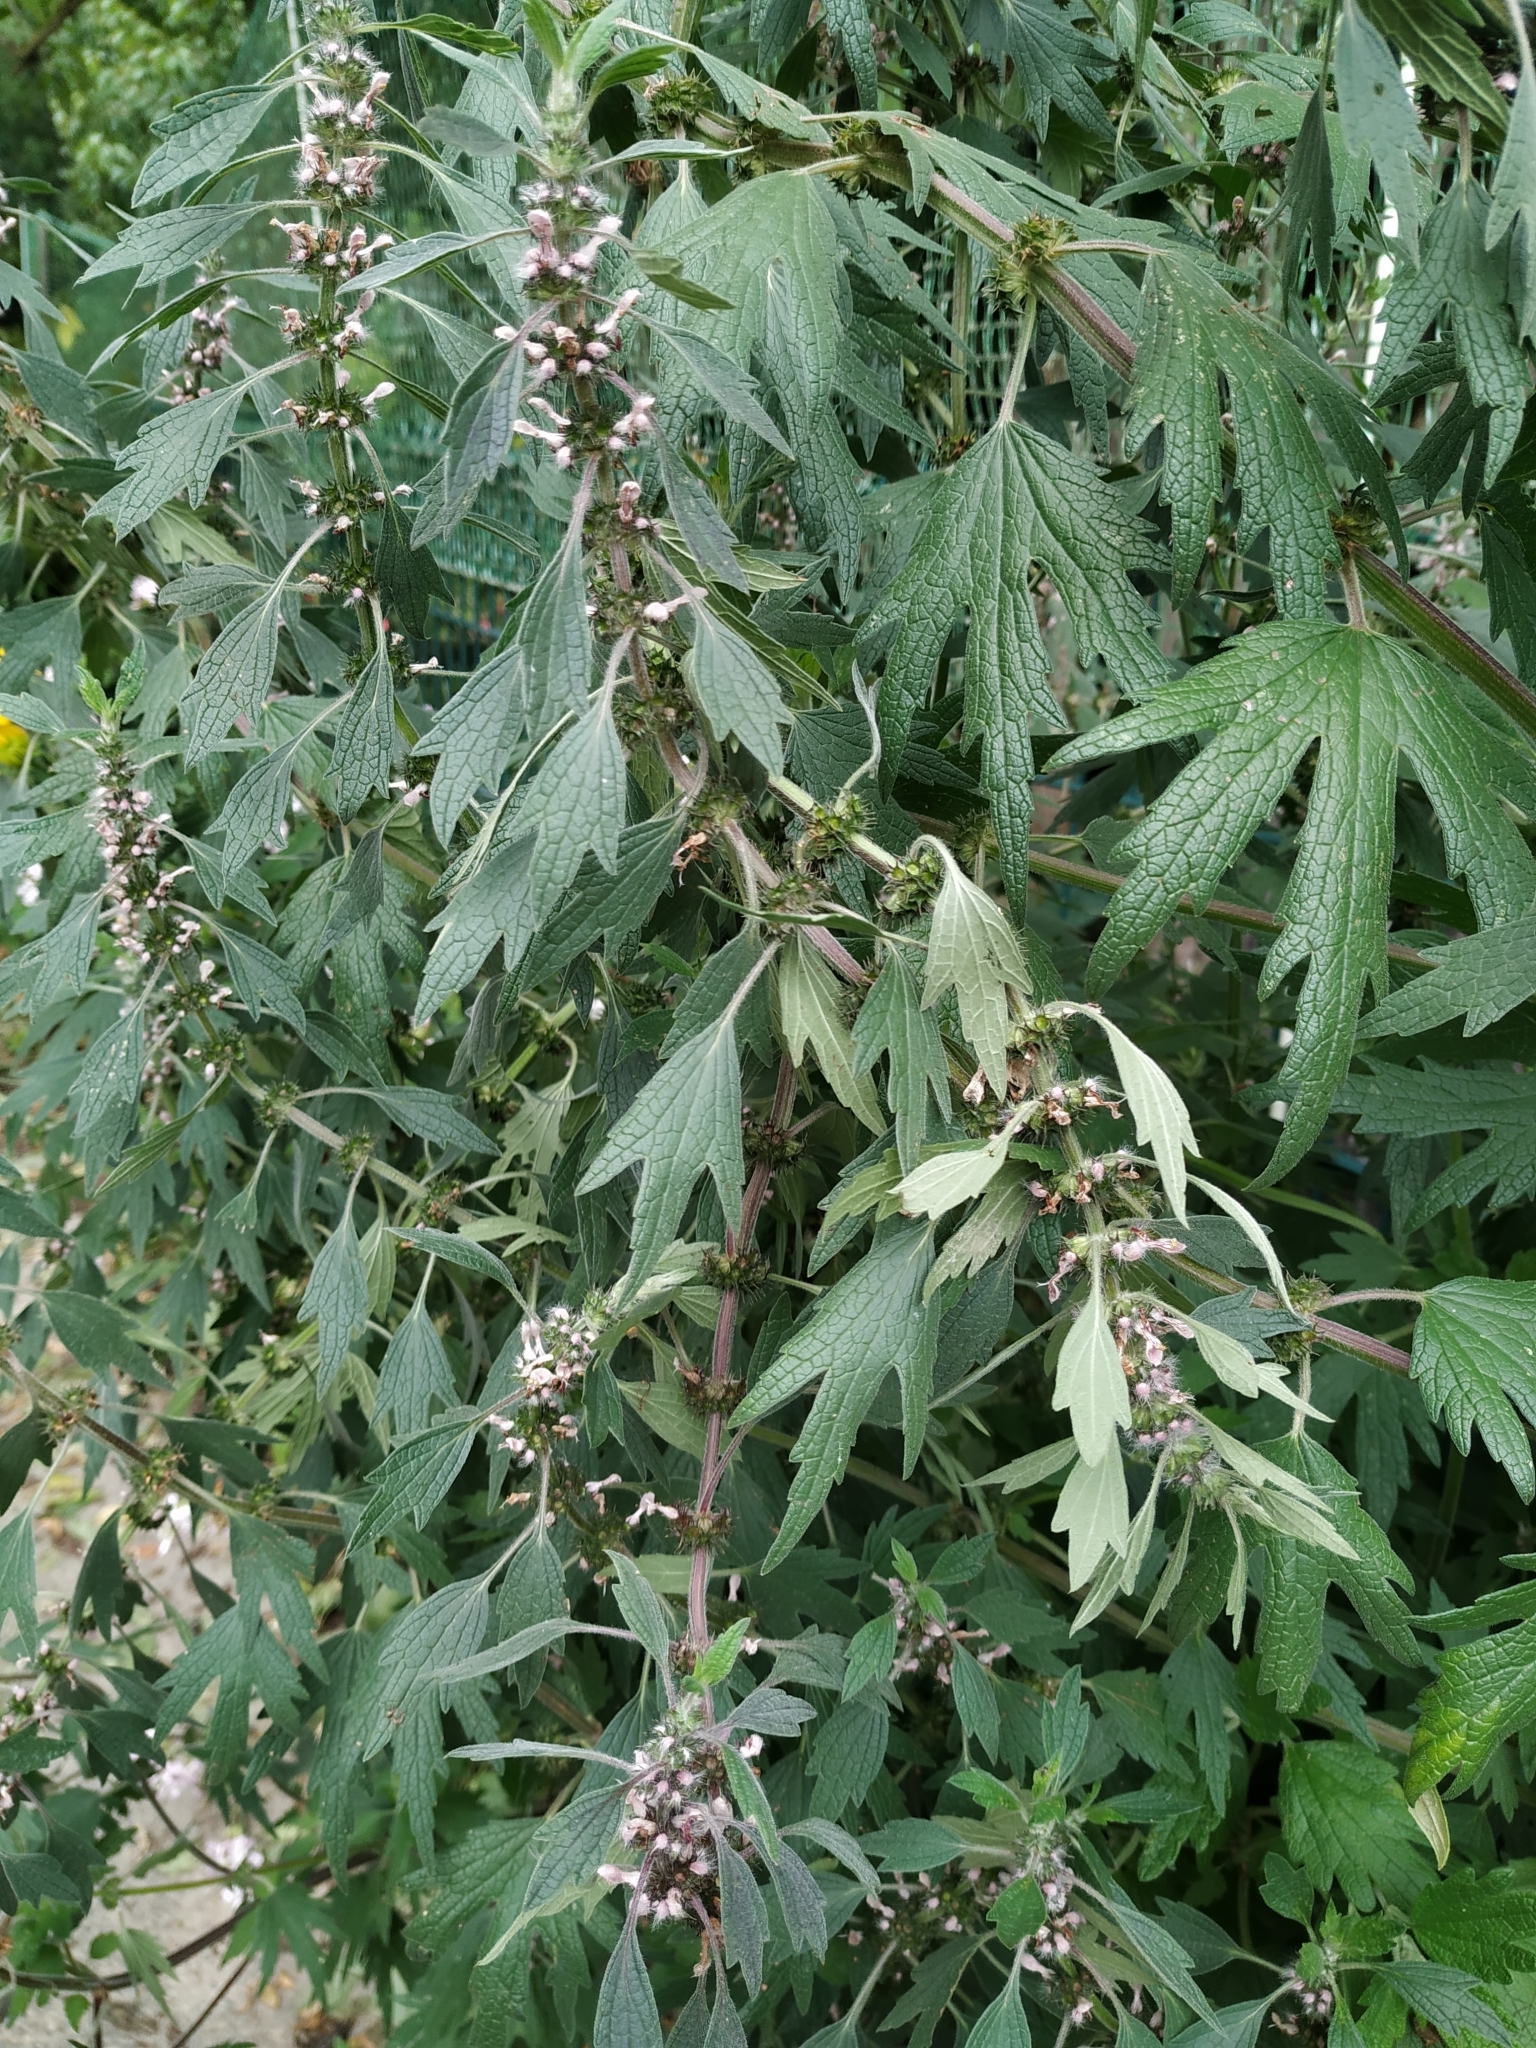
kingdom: Plantae
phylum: Tracheophyta
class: Magnoliopsida
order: Lamiales
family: Lamiaceae
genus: Leonurus
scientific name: Leonurus cardiaca
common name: Motherwort
